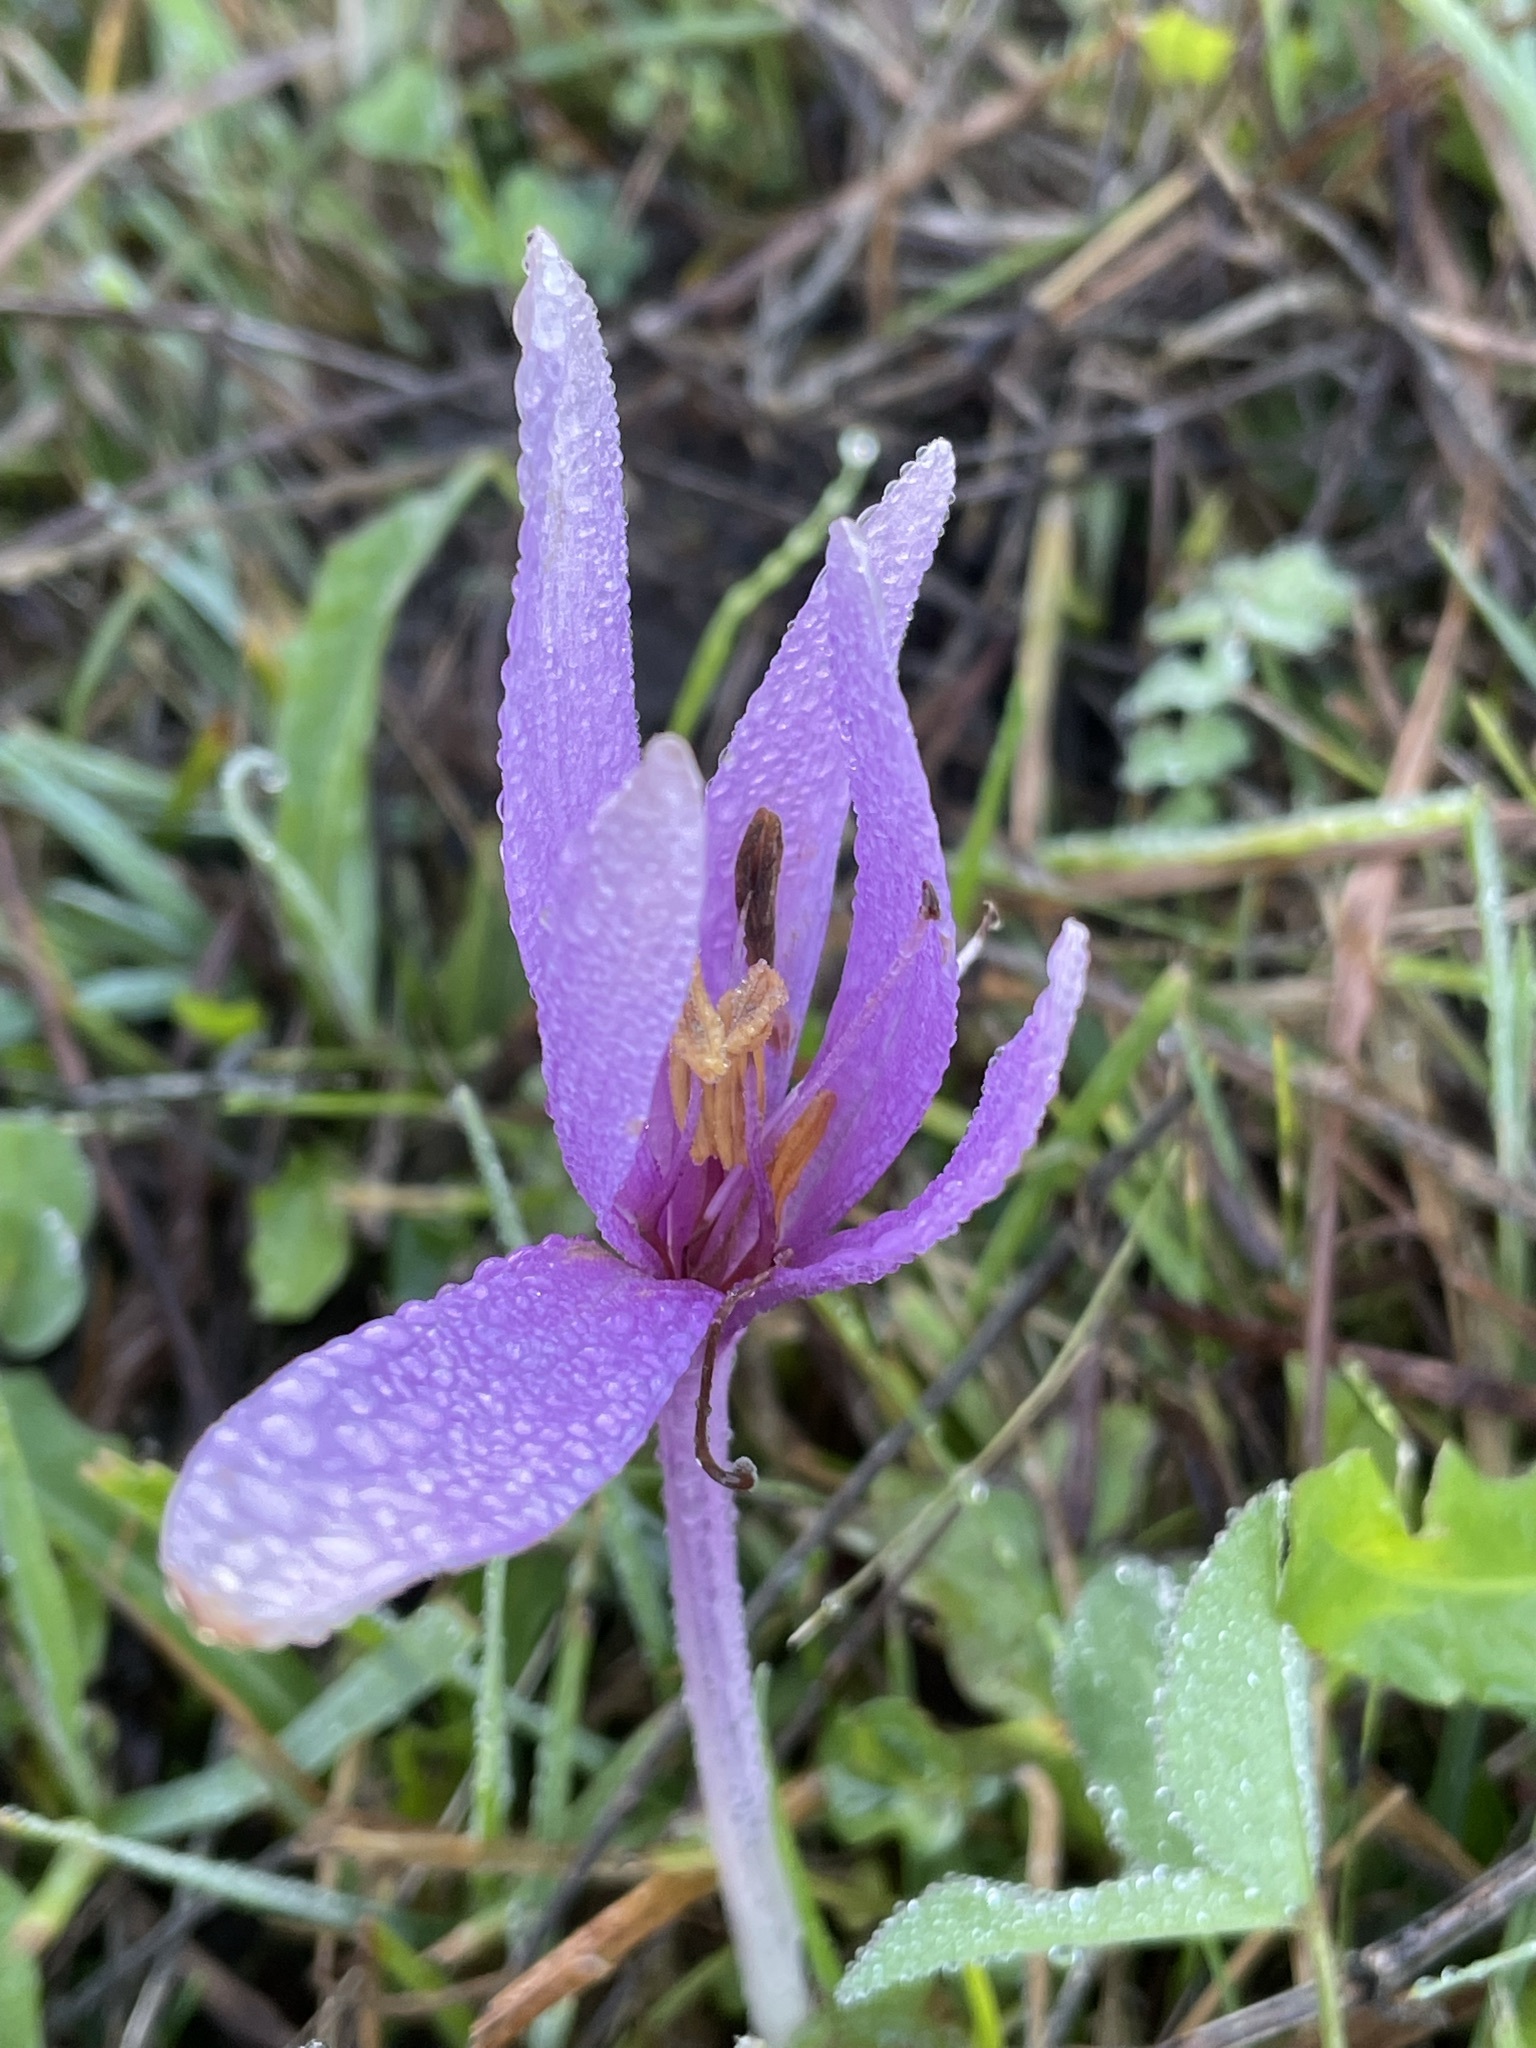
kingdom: Plantae
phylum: Tracheophyta
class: Liliopsida
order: Liliales
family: Colchicaceae
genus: Colchicum
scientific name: Colchicum autumnale
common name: Autumn crocus
